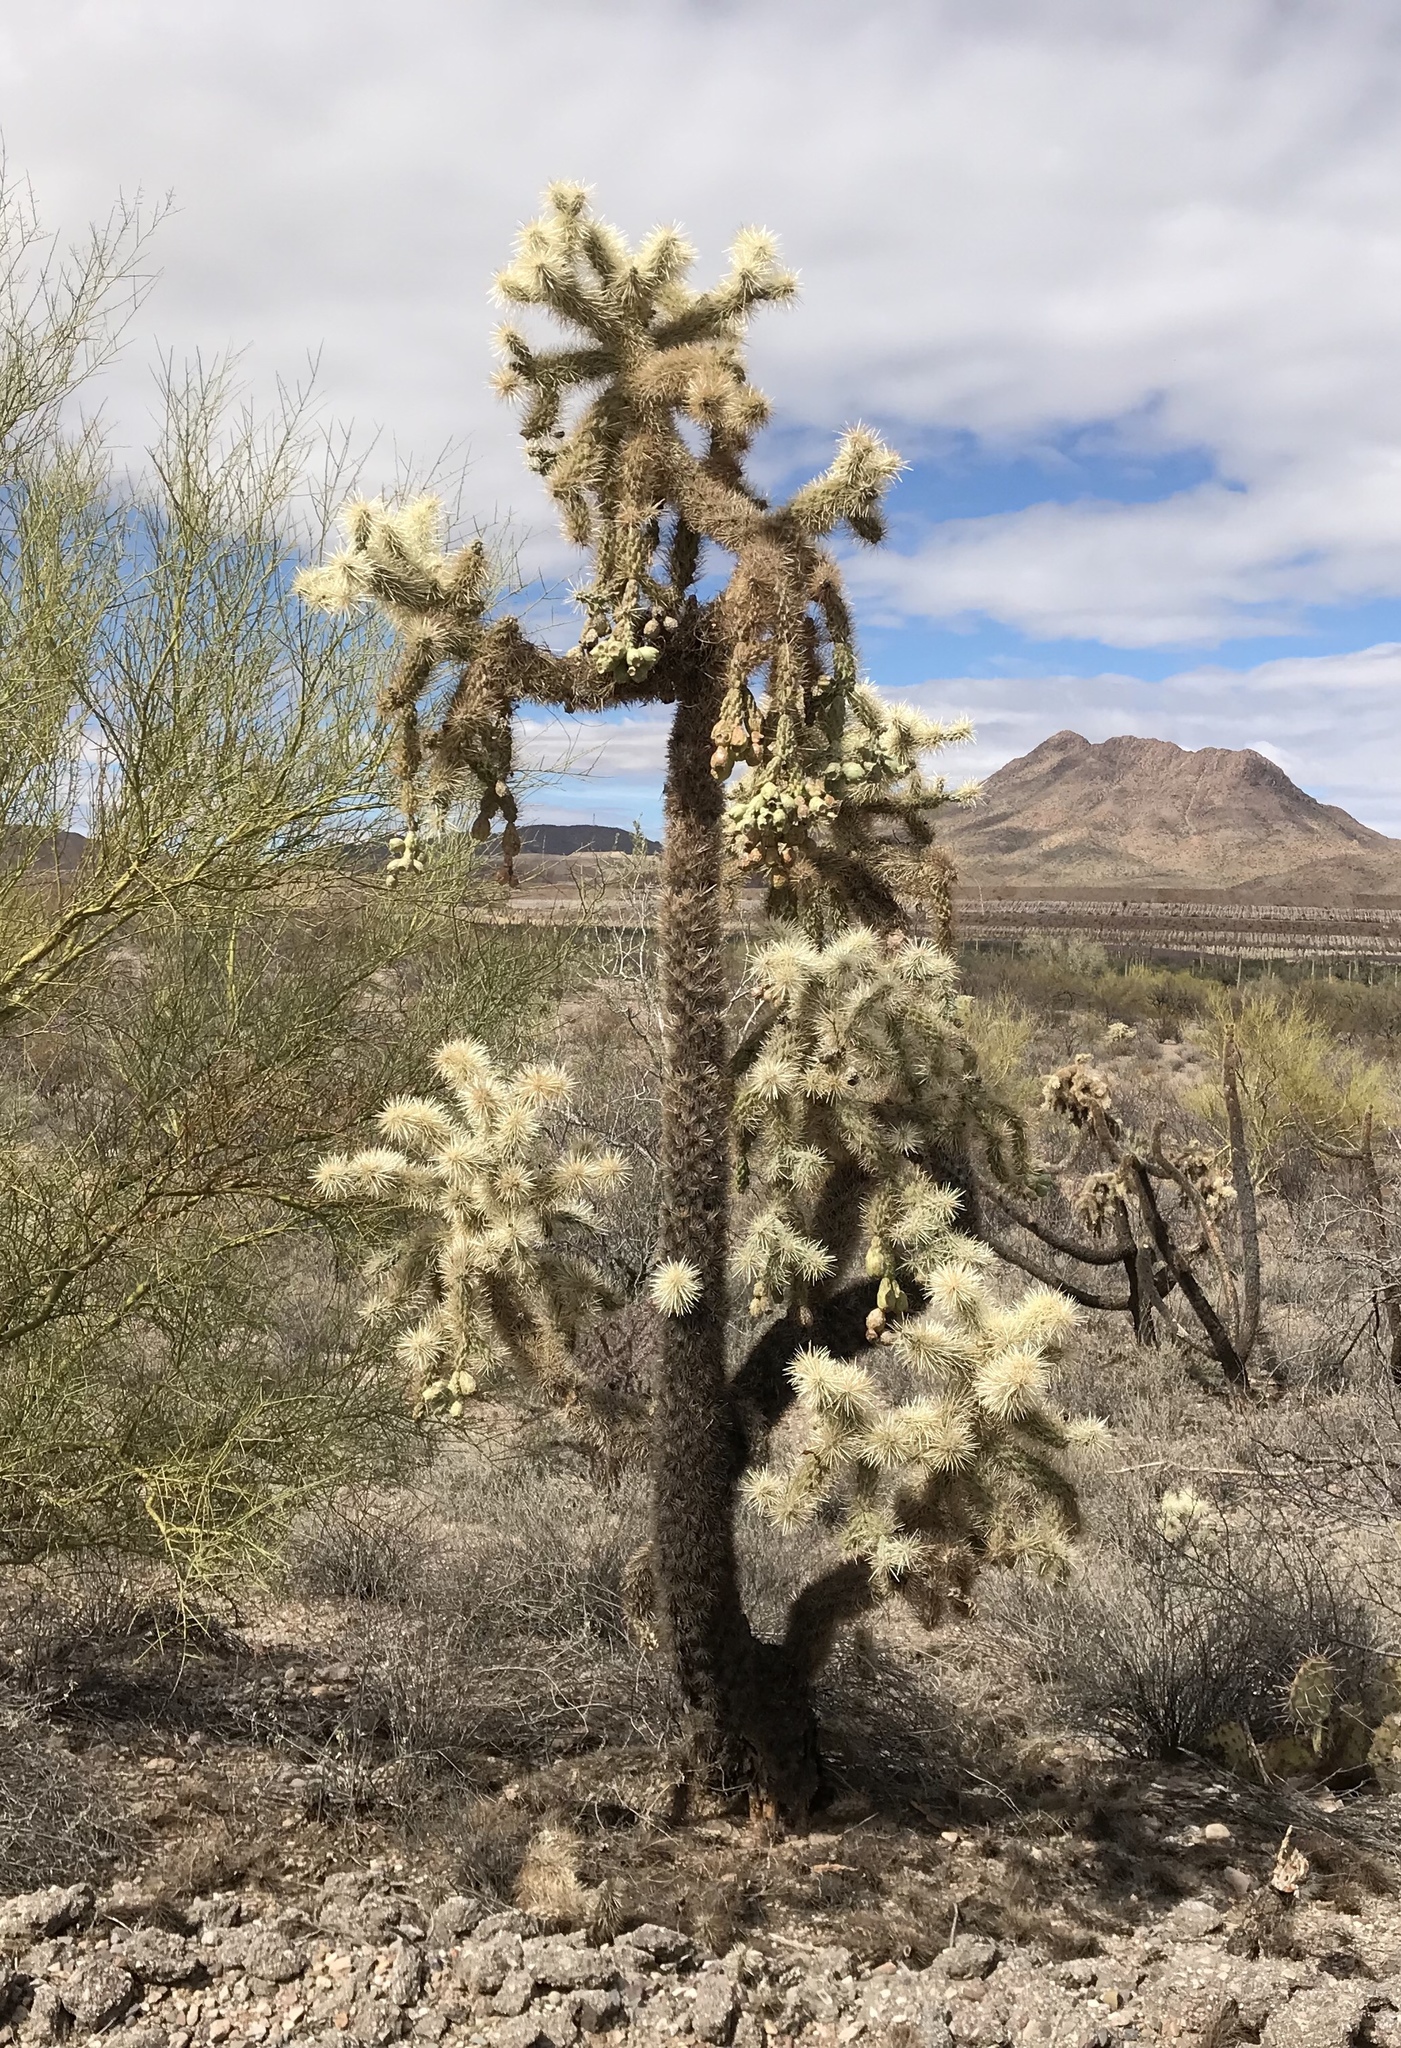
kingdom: Plantae
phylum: Tracheophyta
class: Magnoliopsida
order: Caryophyllales
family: Cactaceae
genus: Cylindropuntia
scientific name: Cylindropuntia fulgida
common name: Jumping cholla
